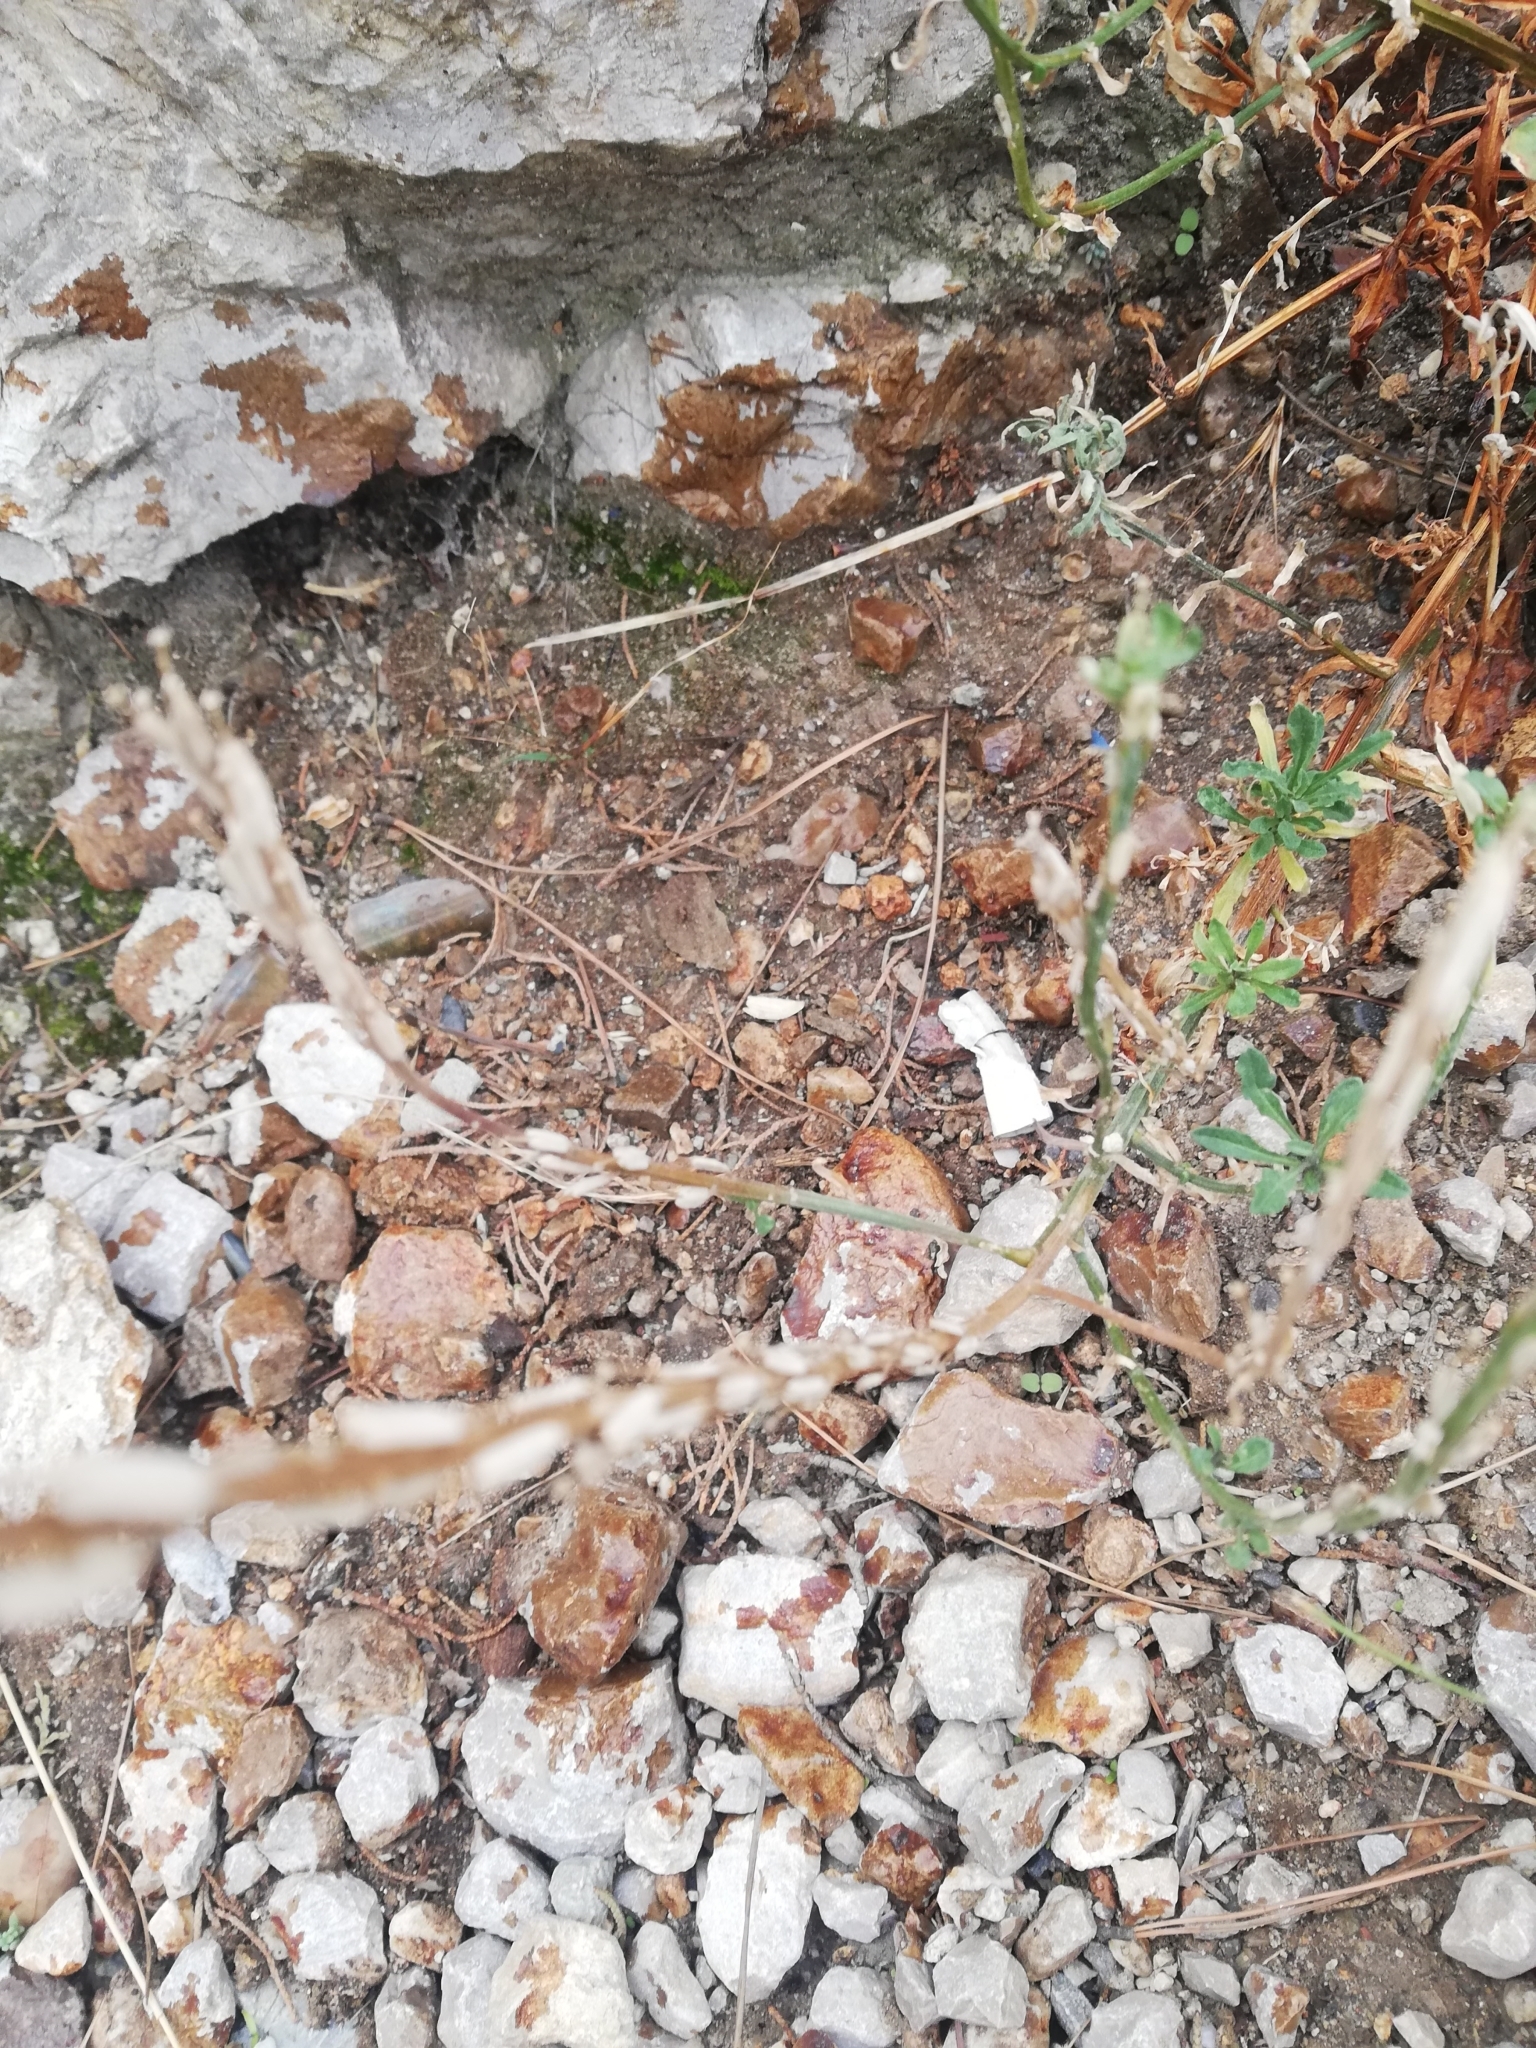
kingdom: Plantae
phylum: Tracheophyta
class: Magnoliopsida
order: Brassicales
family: Brassicaceae
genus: Erysimum
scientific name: Erysimum cuspidatum
